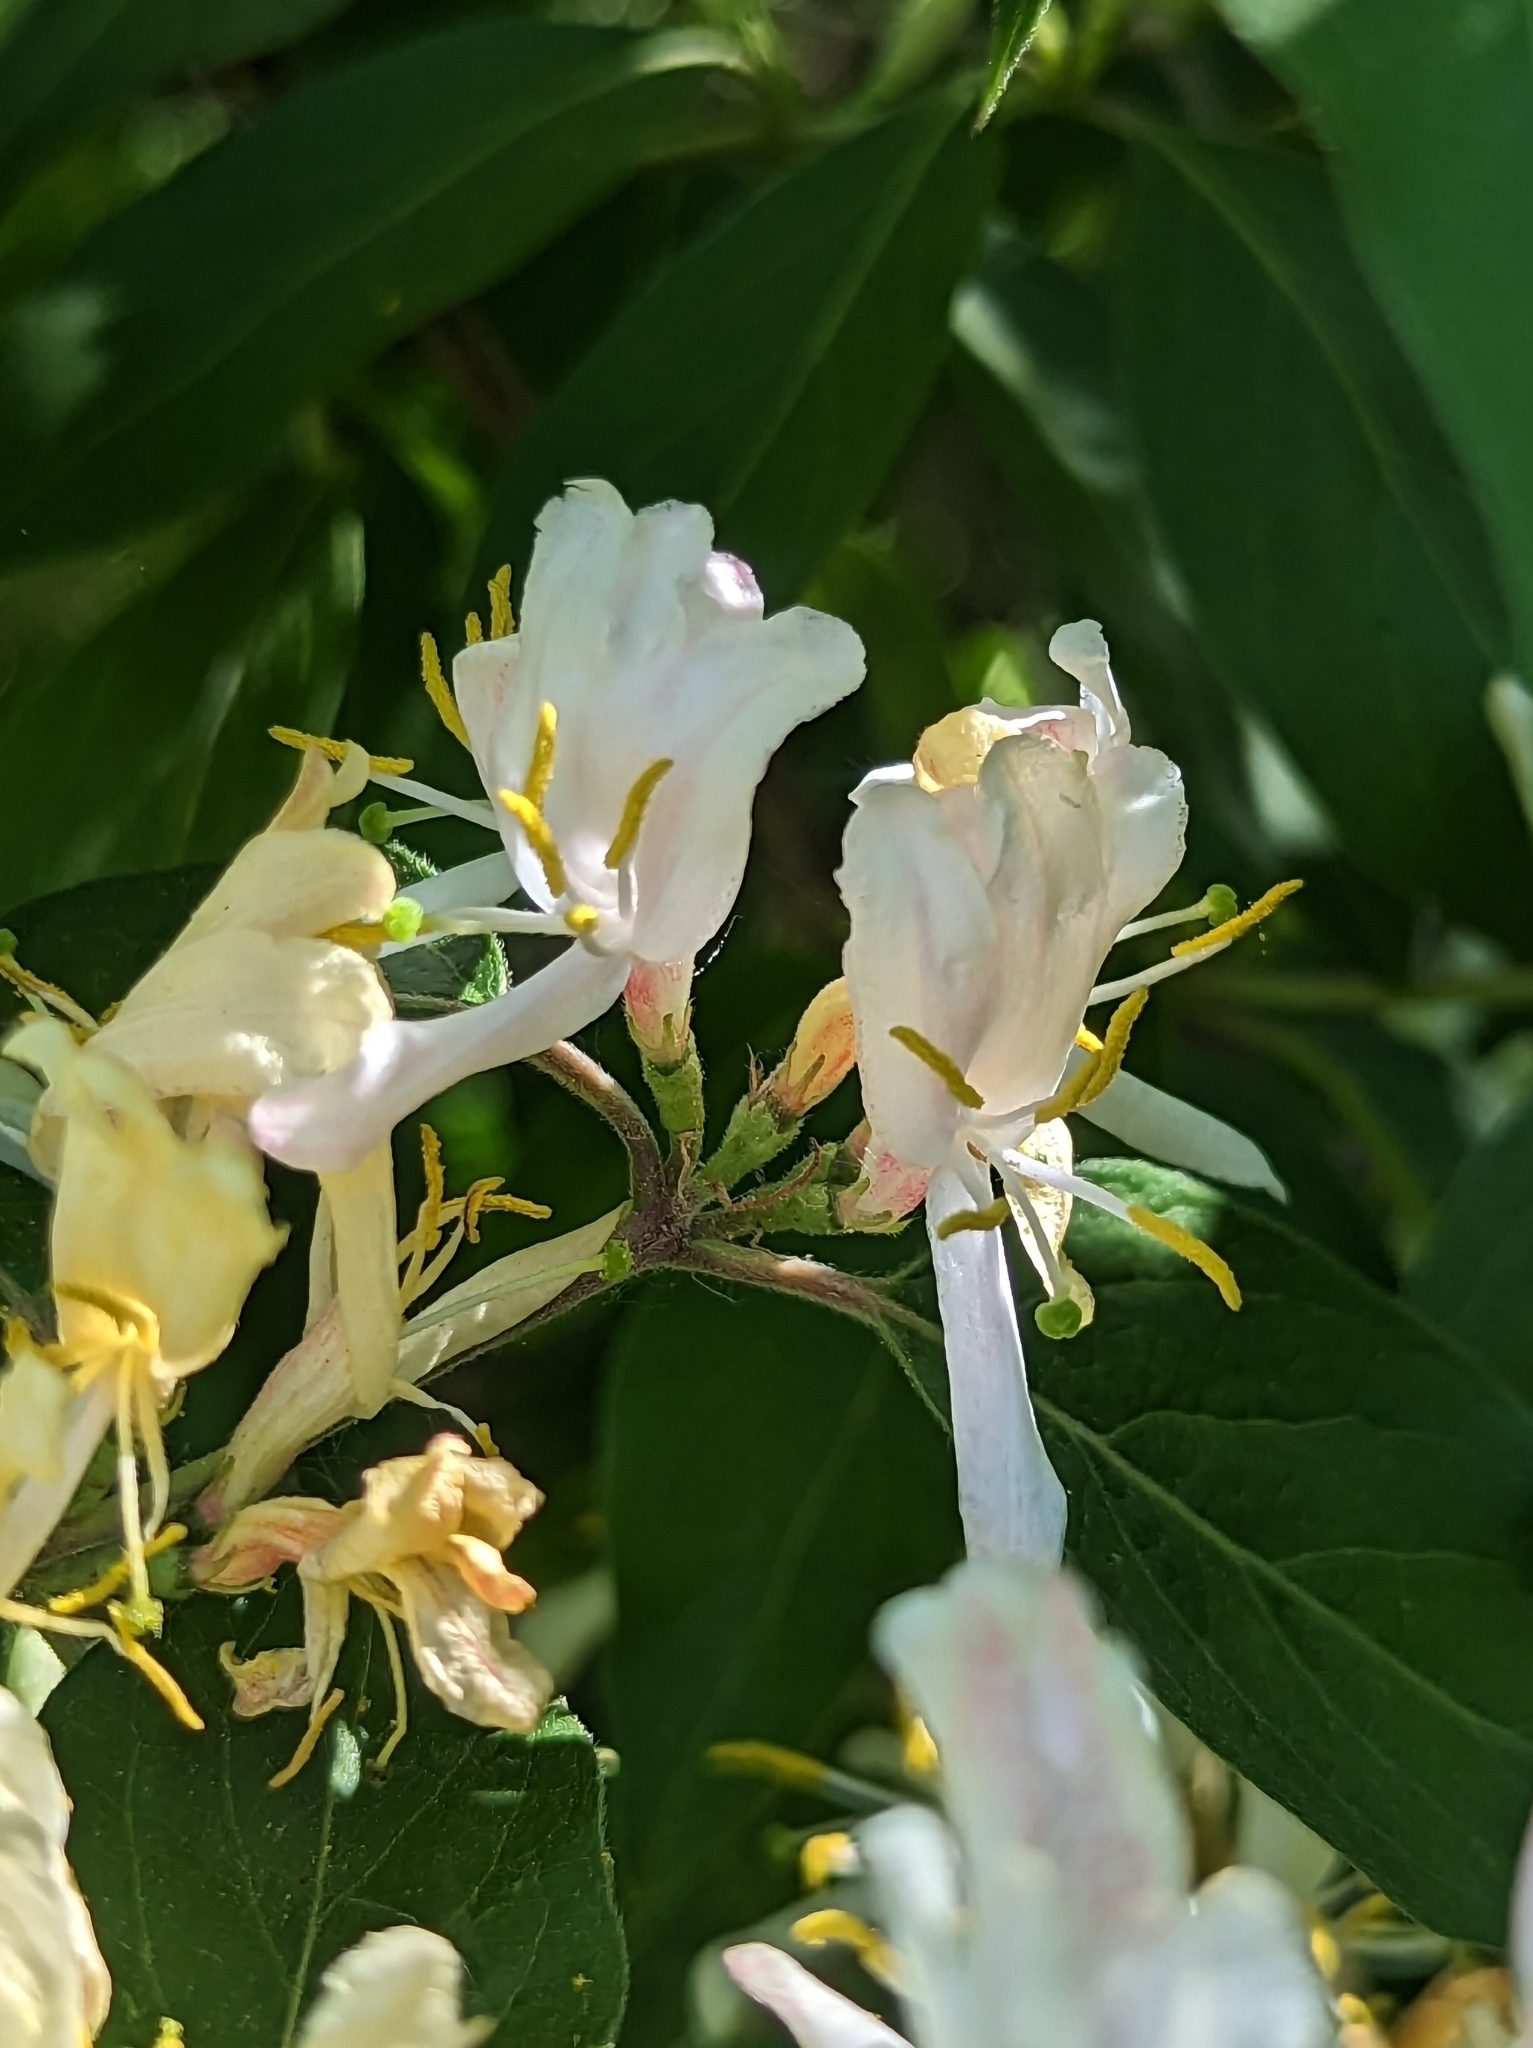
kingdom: Plantae
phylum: Tracheophyta
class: Magnoliopsida
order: Dipsacales
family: Caprifoliaceae
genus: Lonicera
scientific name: Lonicera maackii
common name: Amur honeysuckle
